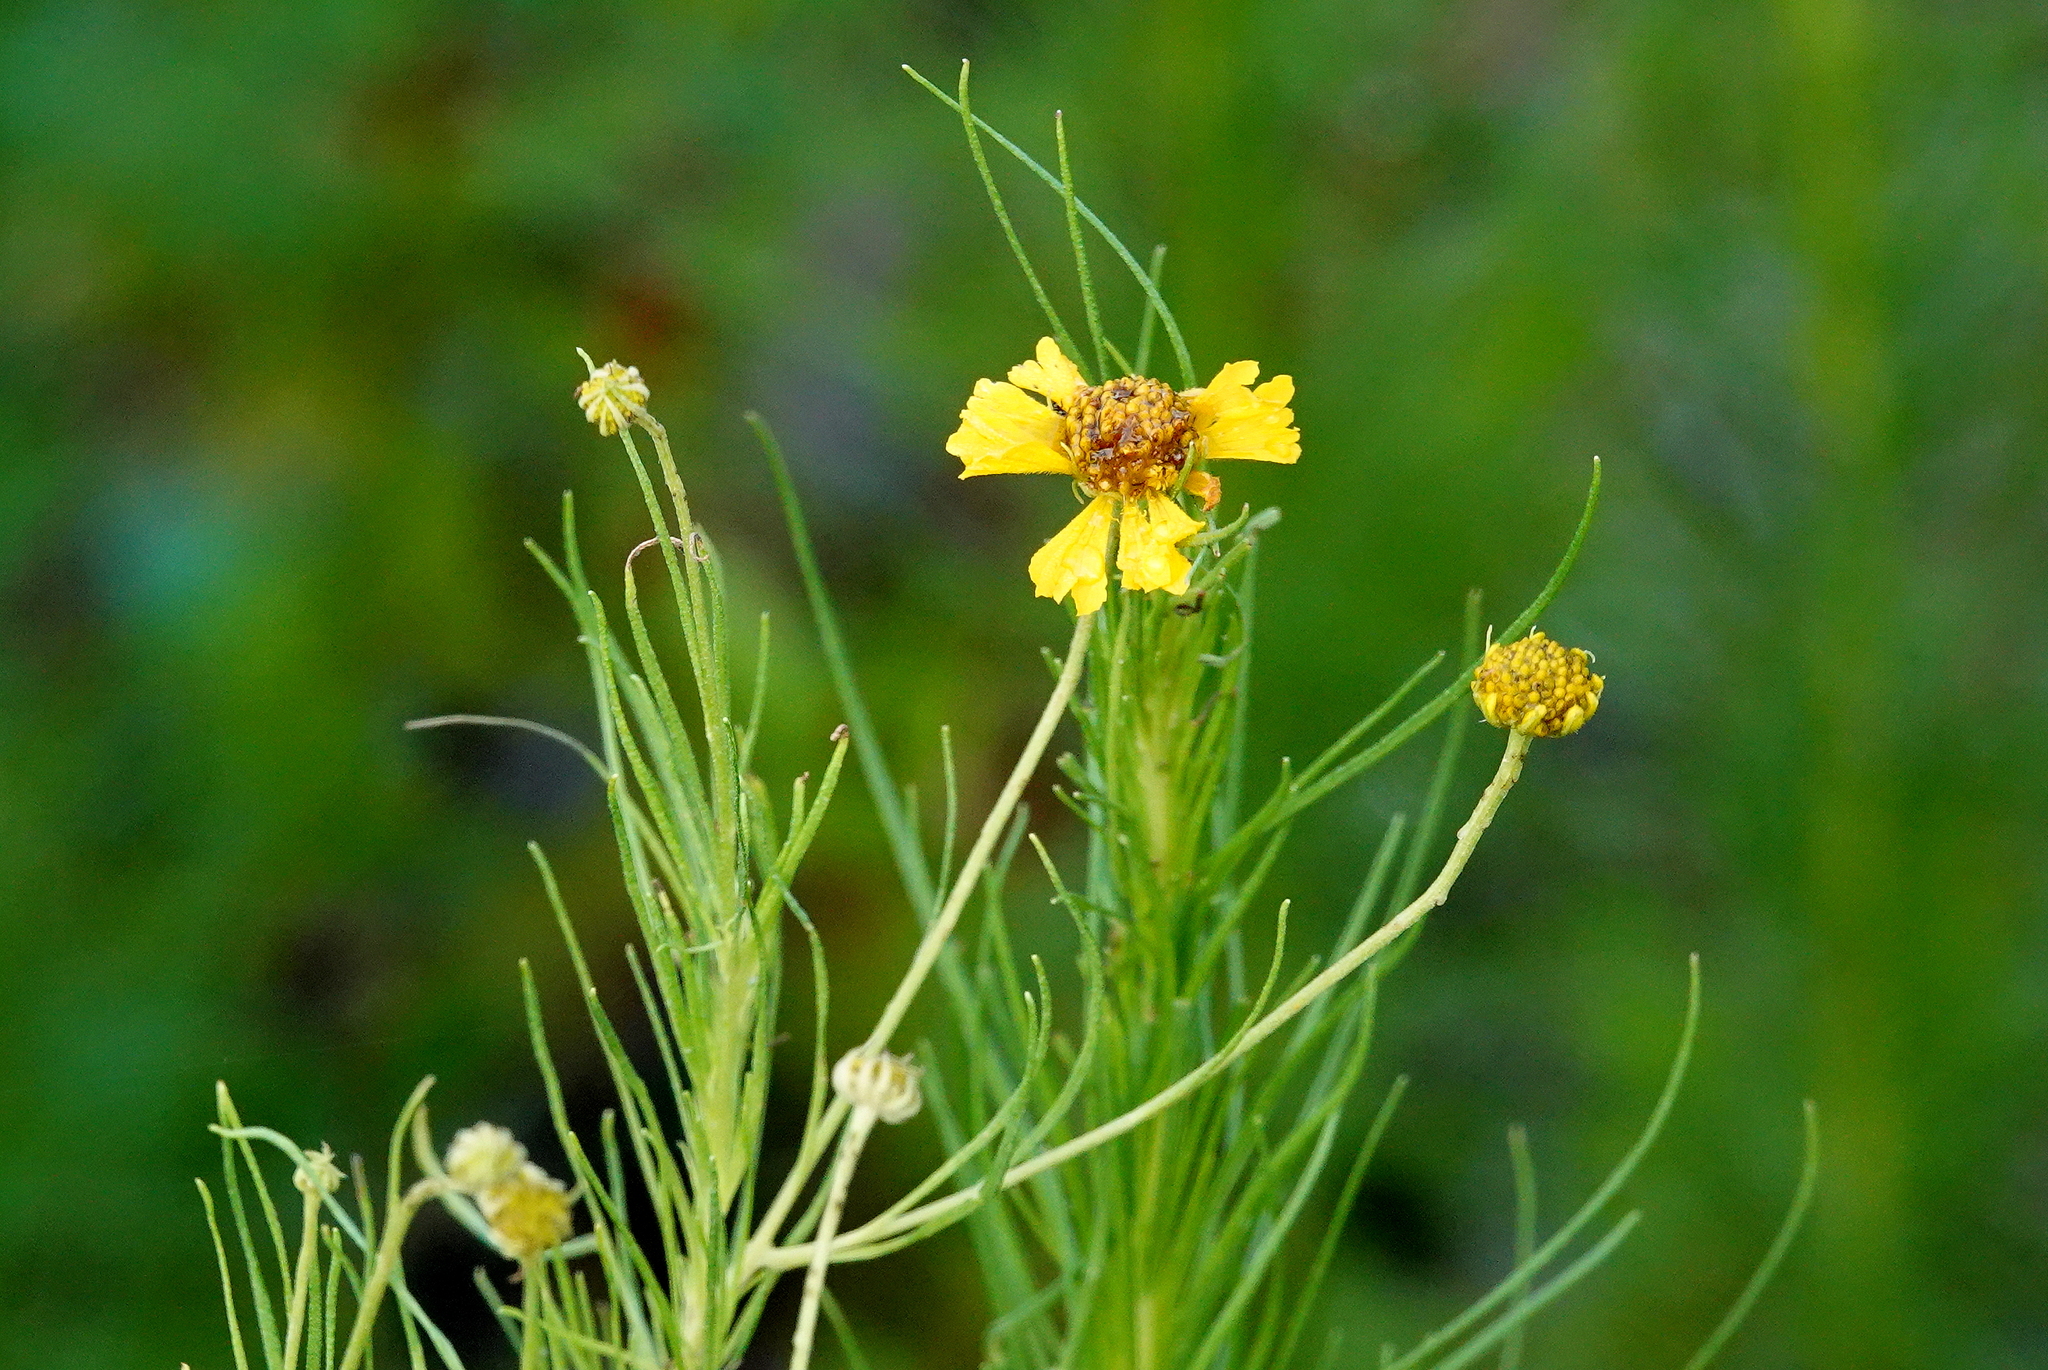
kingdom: Plantae
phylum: Tracheophyta
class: Magnoliopsida
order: Asterales
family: Asteraceae
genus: Helenium
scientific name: Helenium amarum
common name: Bitter sneezeweed
